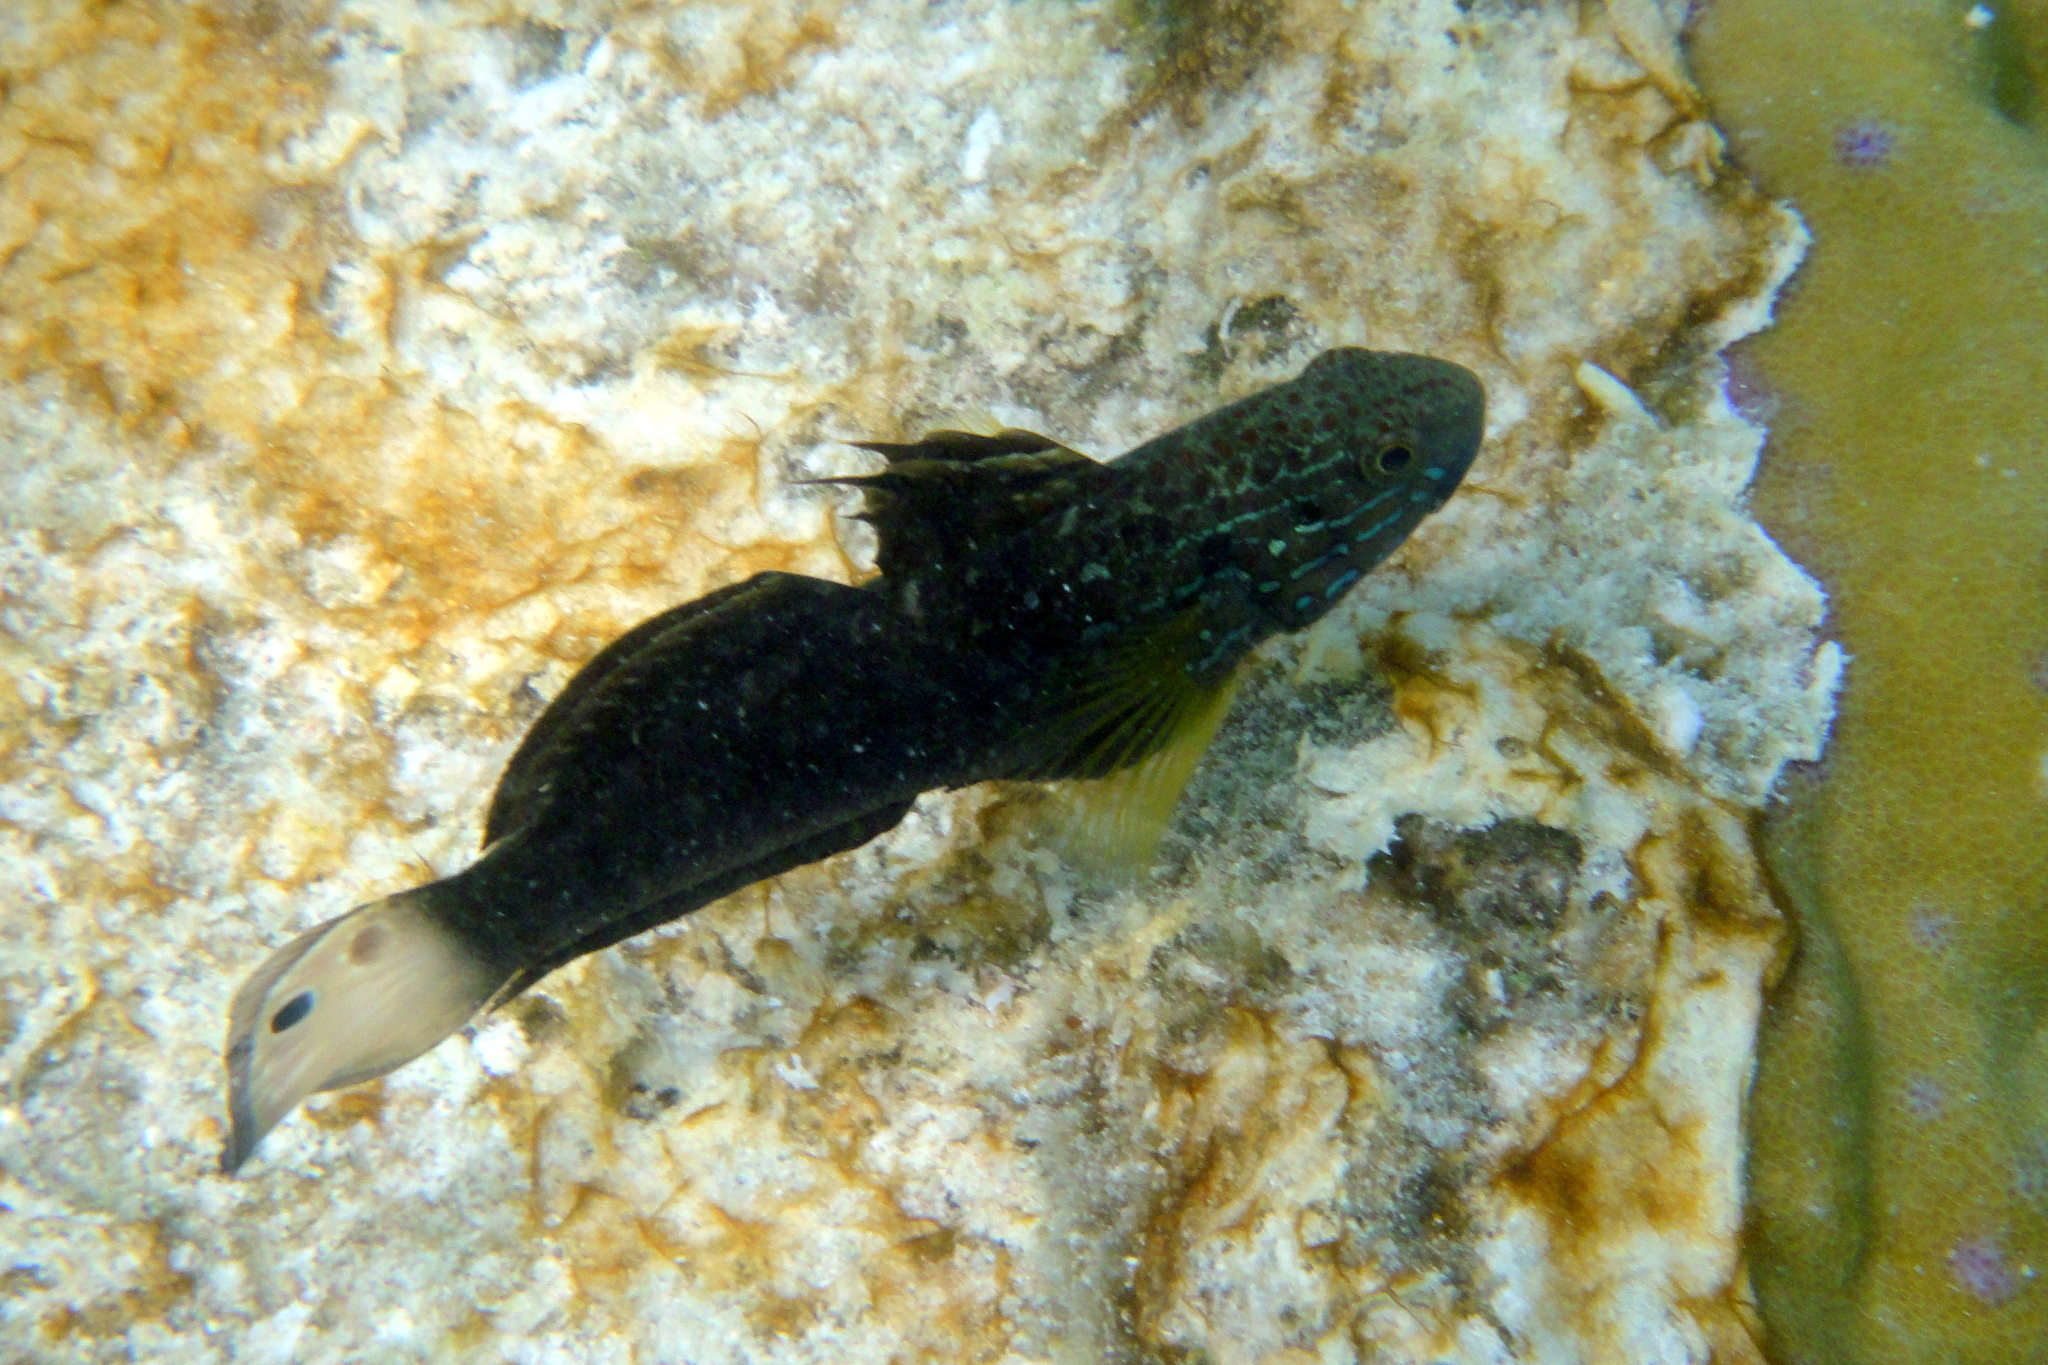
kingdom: Animalia
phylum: Chordata
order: Perciformes
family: Gobiidae
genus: Amblygobius
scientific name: Amblygobius phalaena
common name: Banded goby
